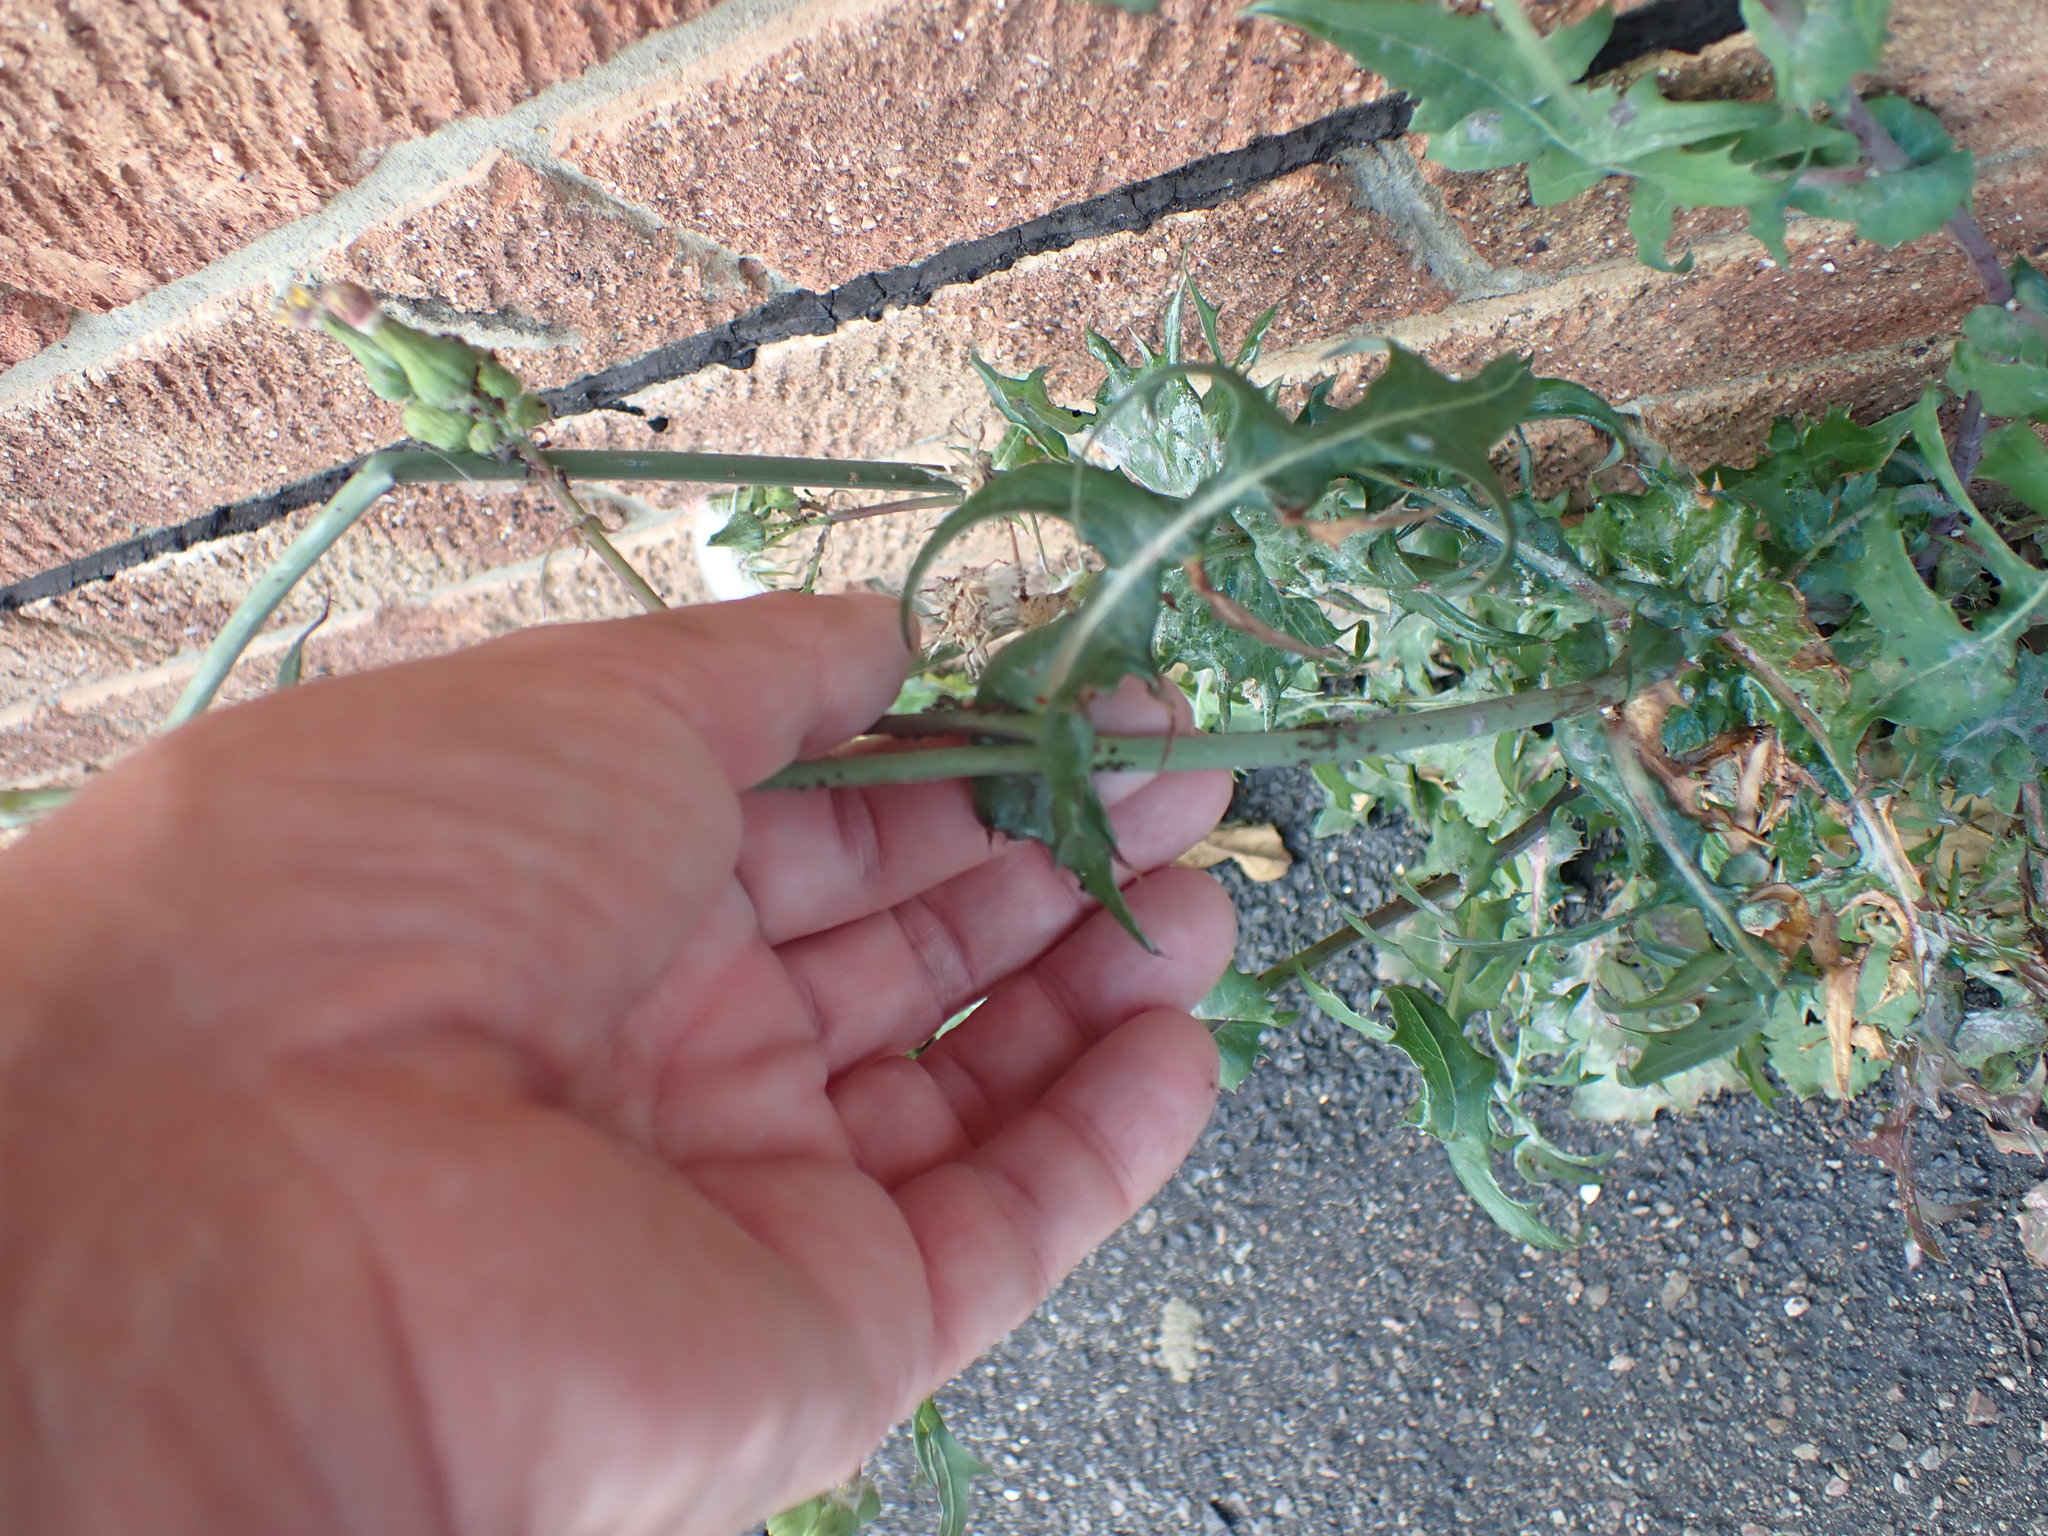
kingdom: Plantae
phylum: Tracheophyta
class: Magnoliopsida
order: Asterales
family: Asteraceae
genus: Sonchus
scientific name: Sonchus oleraceus
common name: Common sowthistle
